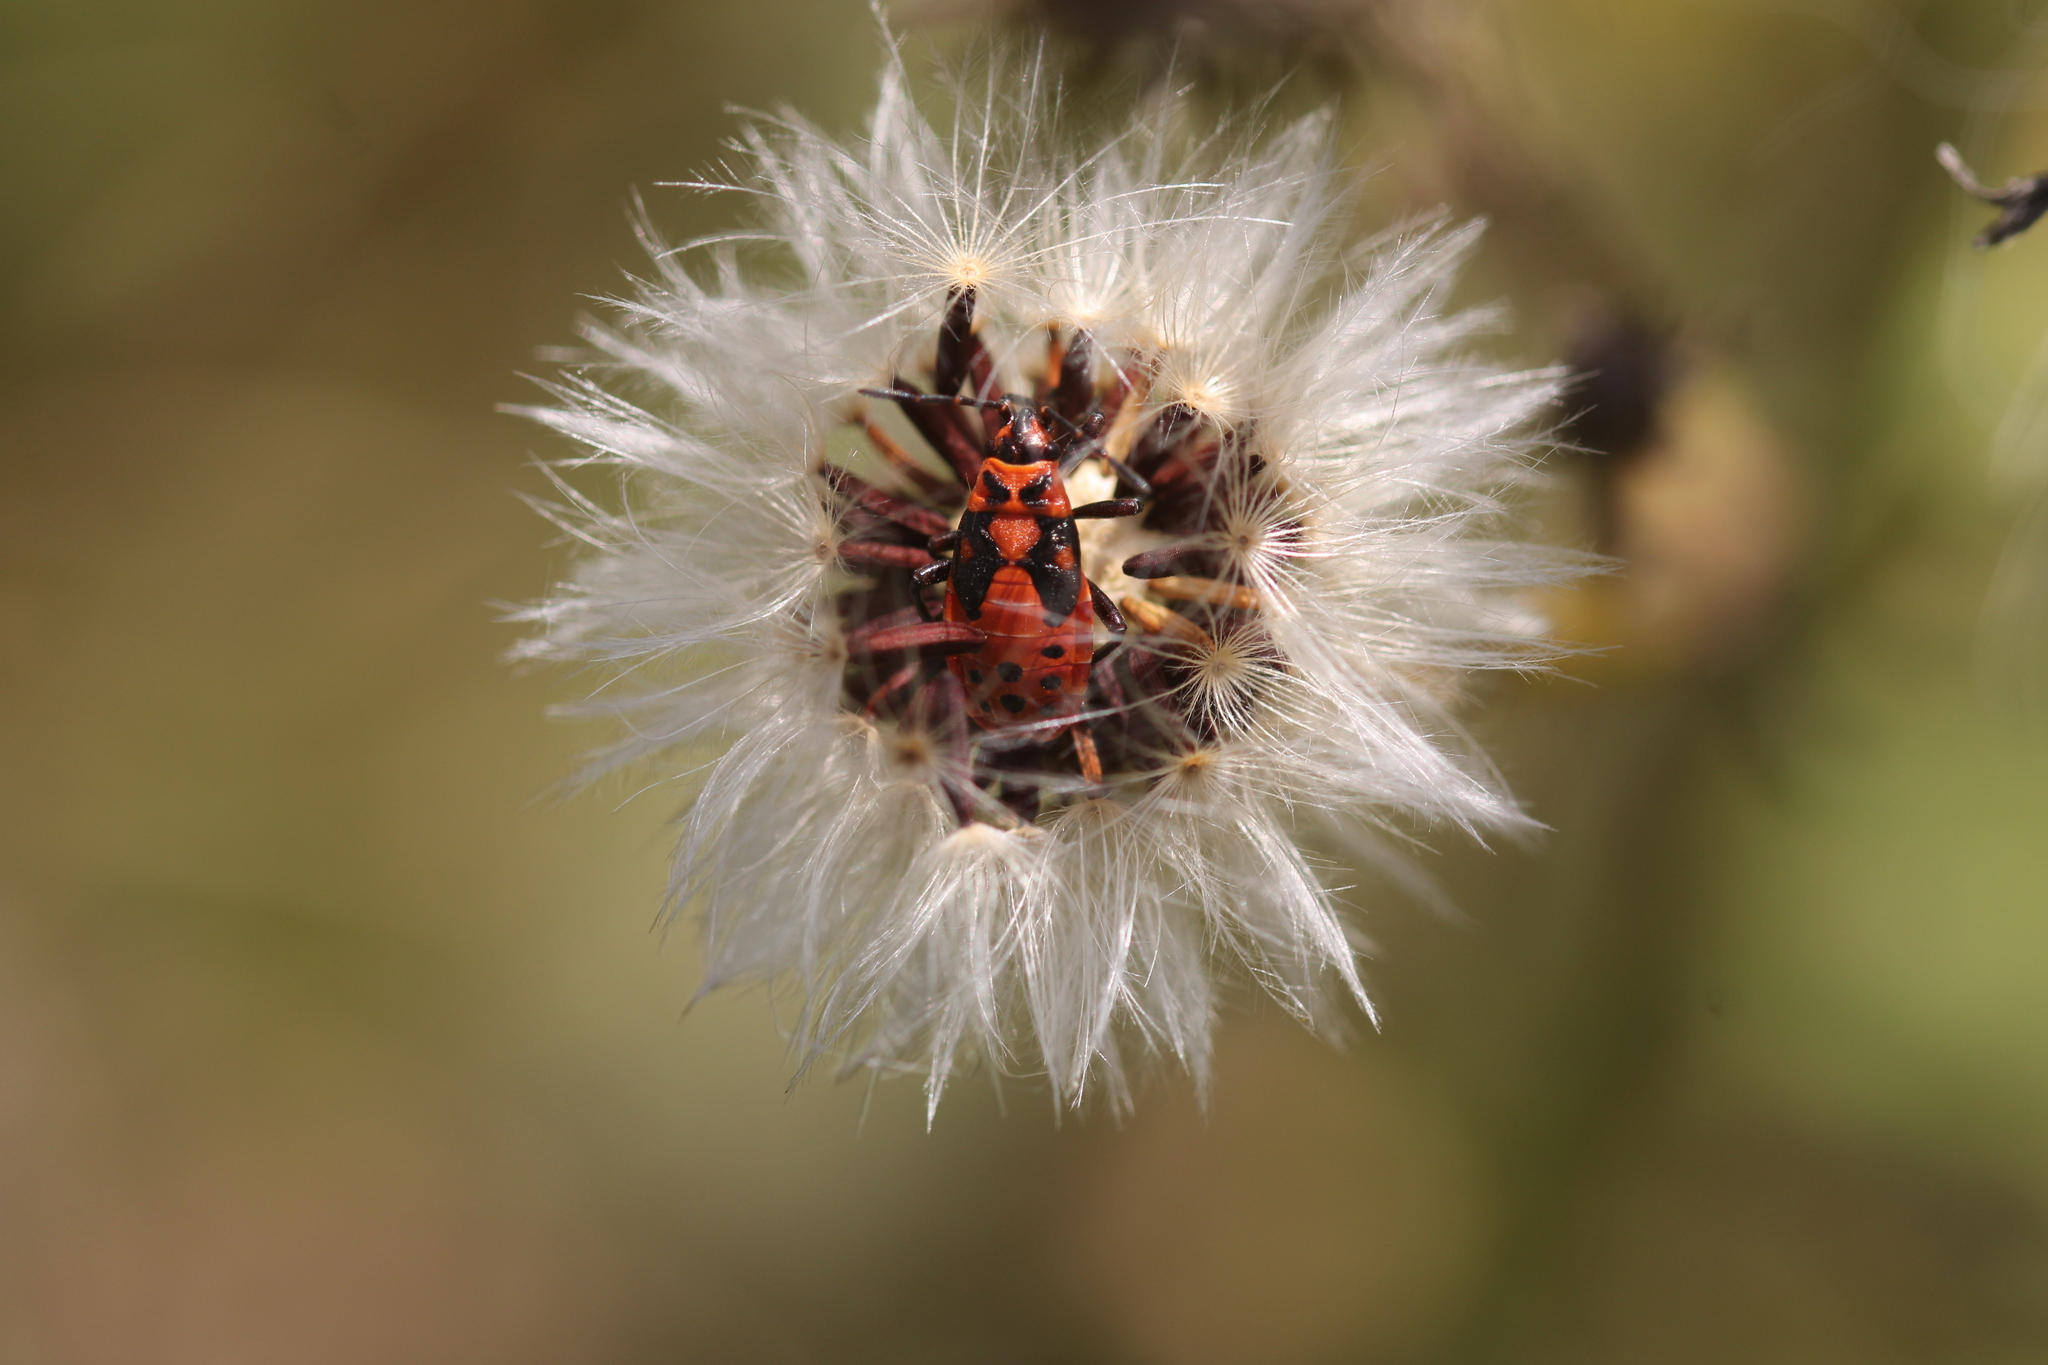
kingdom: Animalia
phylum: Arthropoda
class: Insecta
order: Hemiptera
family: Lygaeidae
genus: Spilostethus
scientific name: Spilostethus saxatilis
